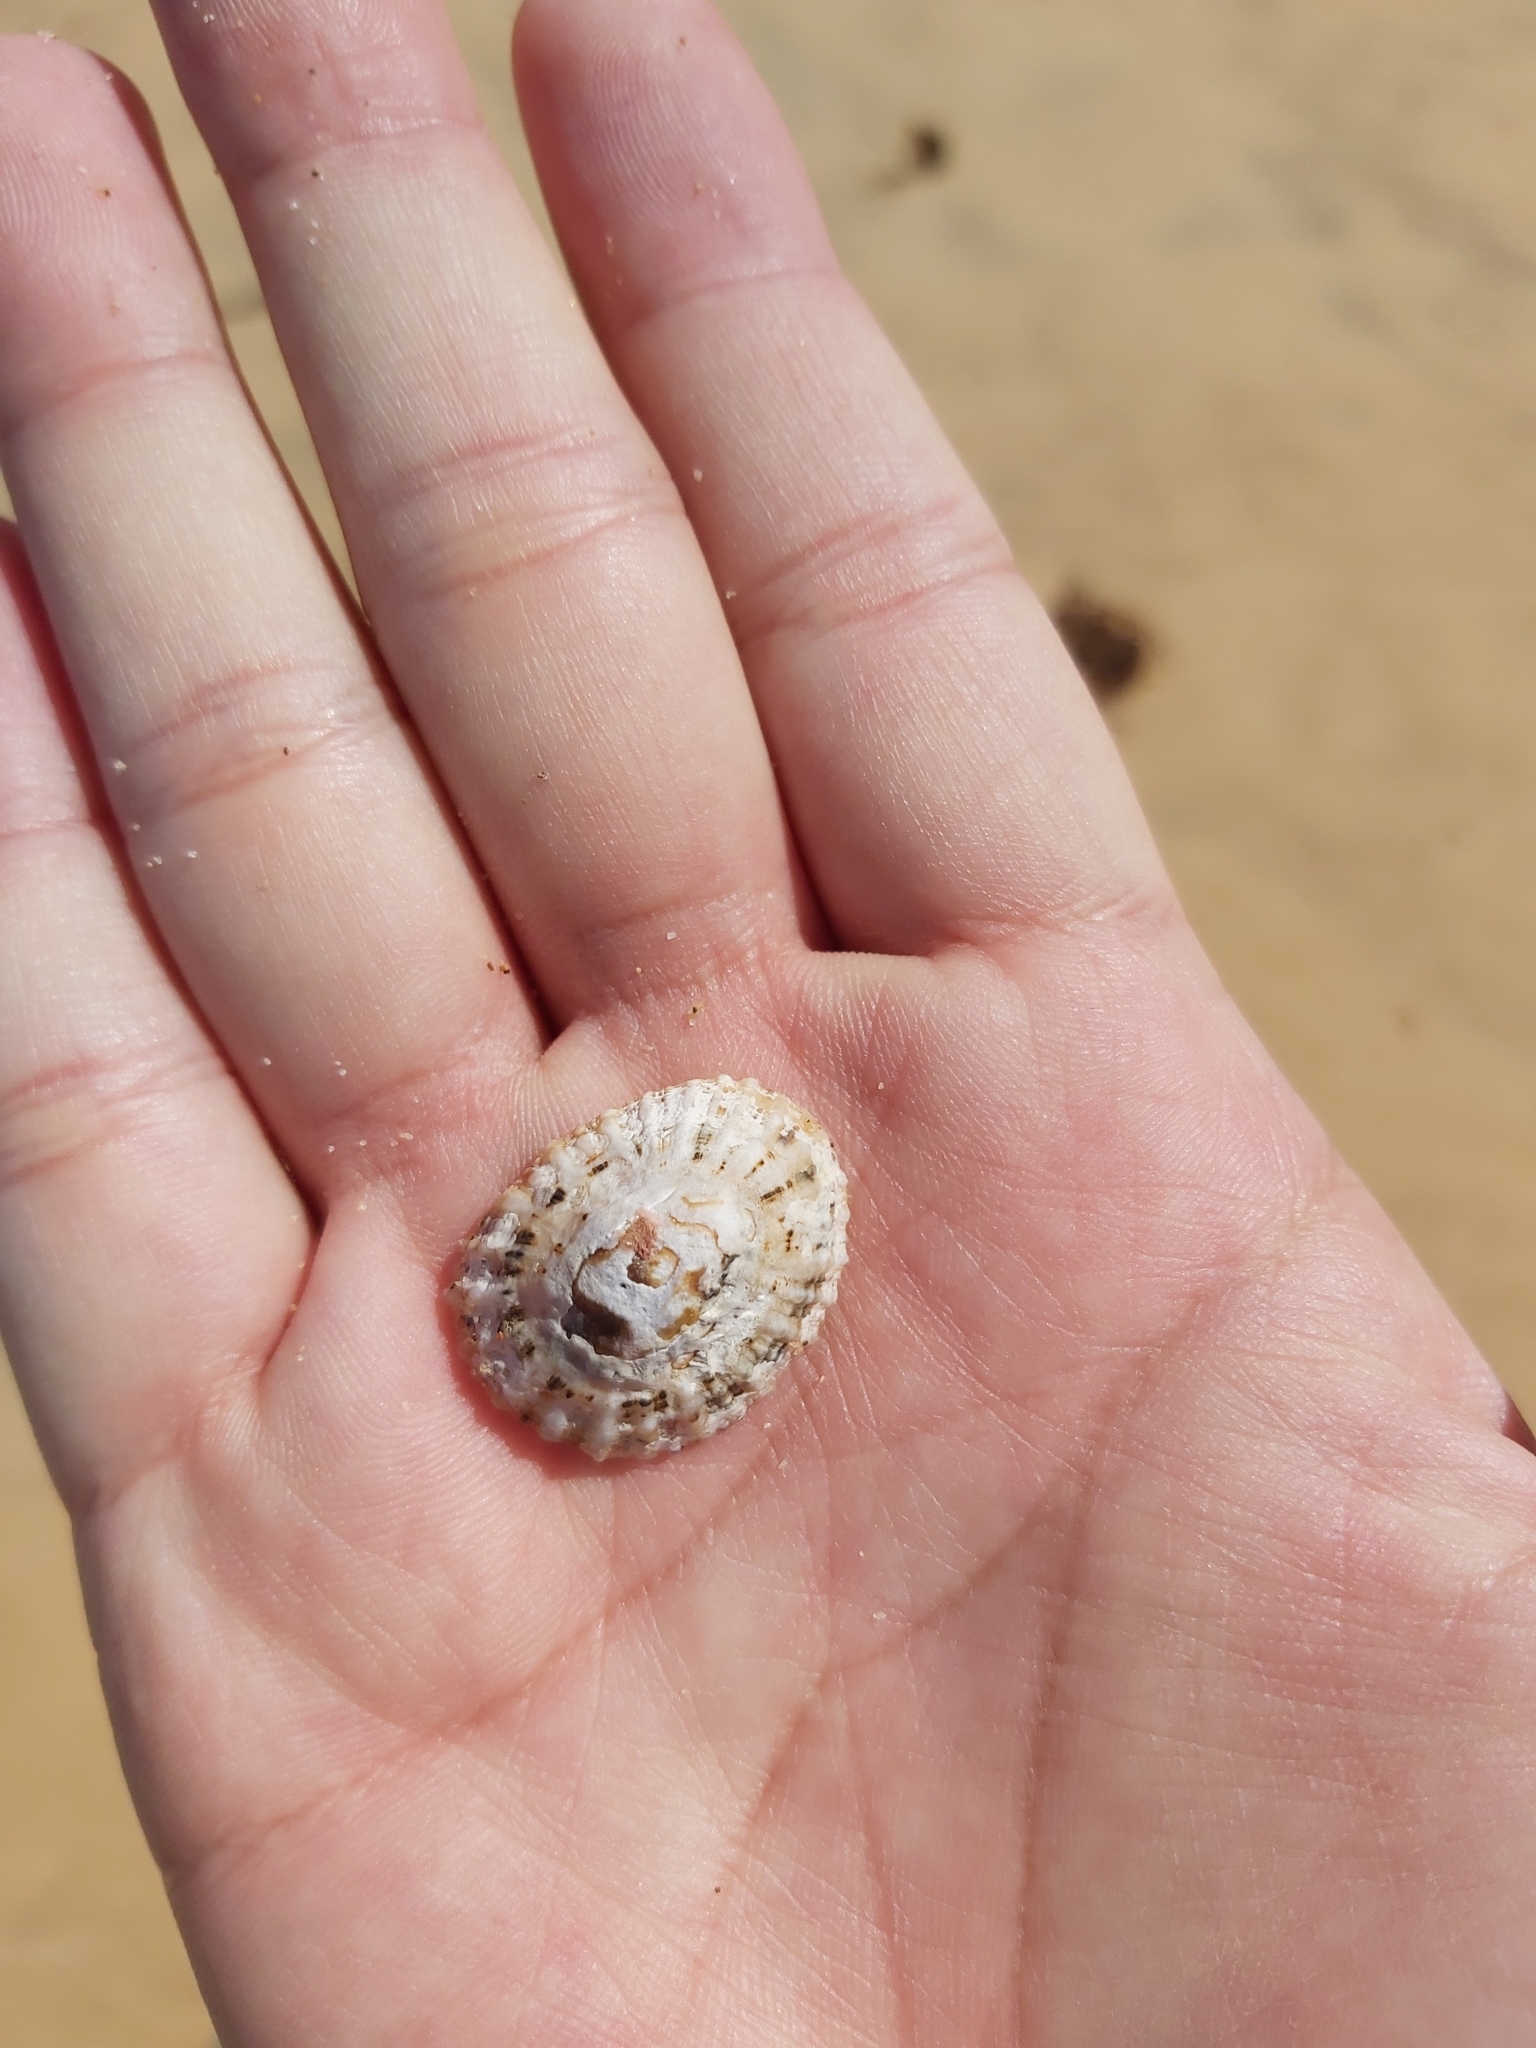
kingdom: Animalia
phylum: Mollusca
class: Gastropoda
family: Patellidae
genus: Scutellastra
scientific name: Scutellastra peronii
